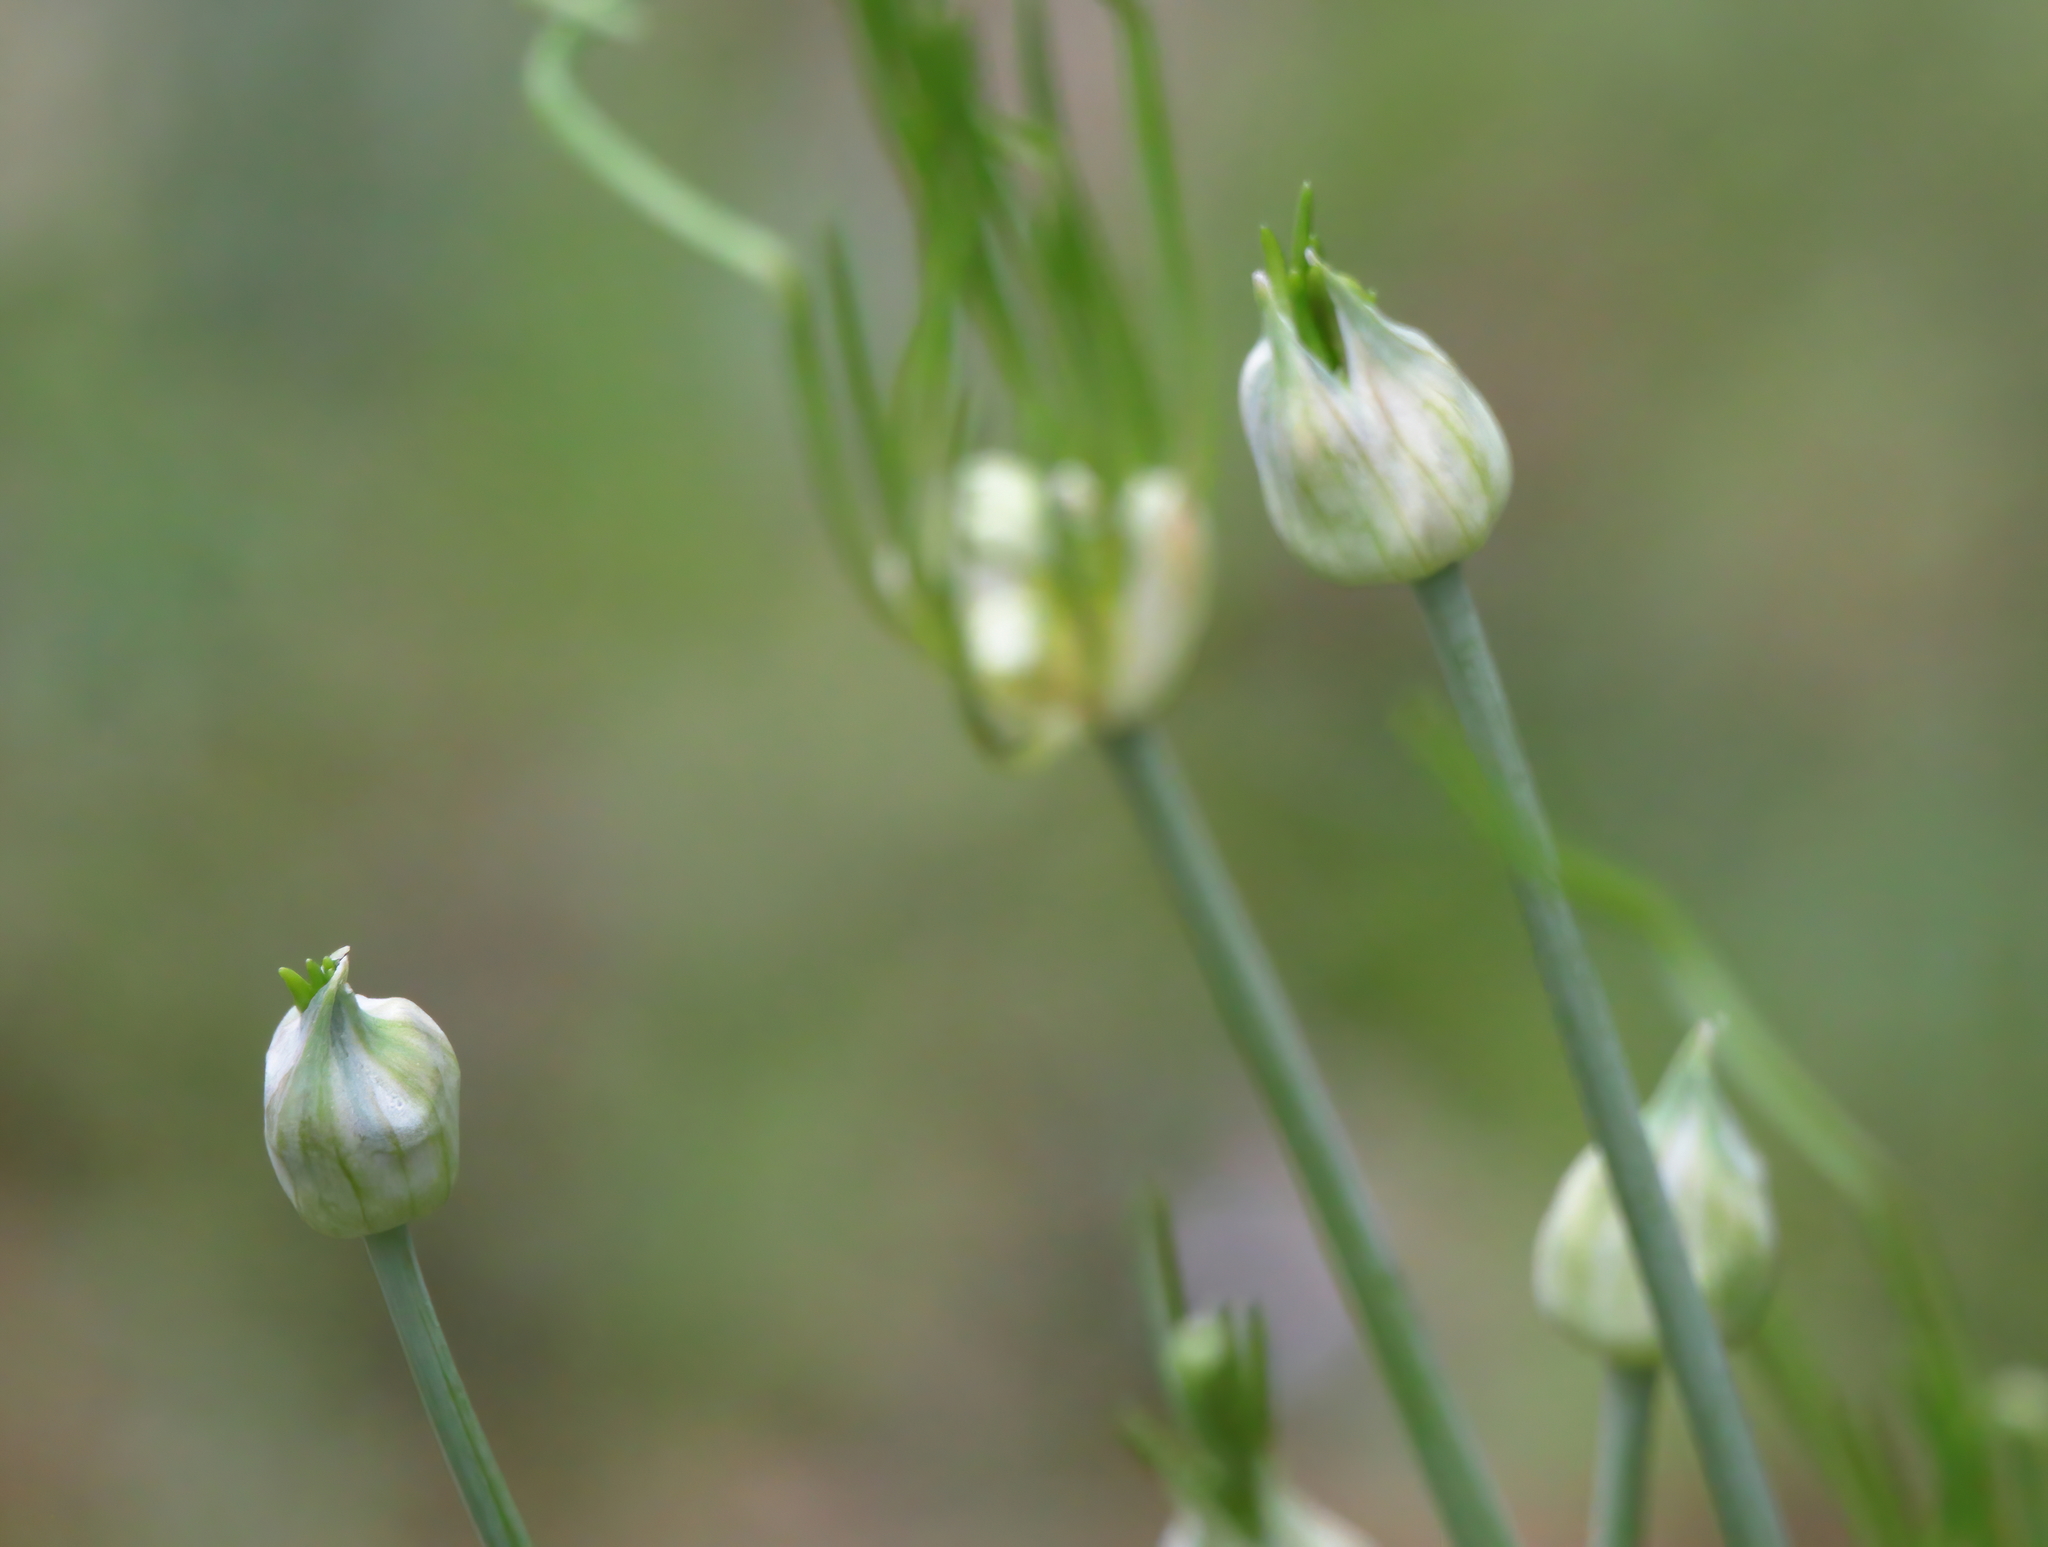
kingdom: Plantae
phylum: Tracheophyta
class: Liliopsida
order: Asparagales
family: Amaryllidaceae
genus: Allium
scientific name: Allium canadense
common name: Meadow garlic
